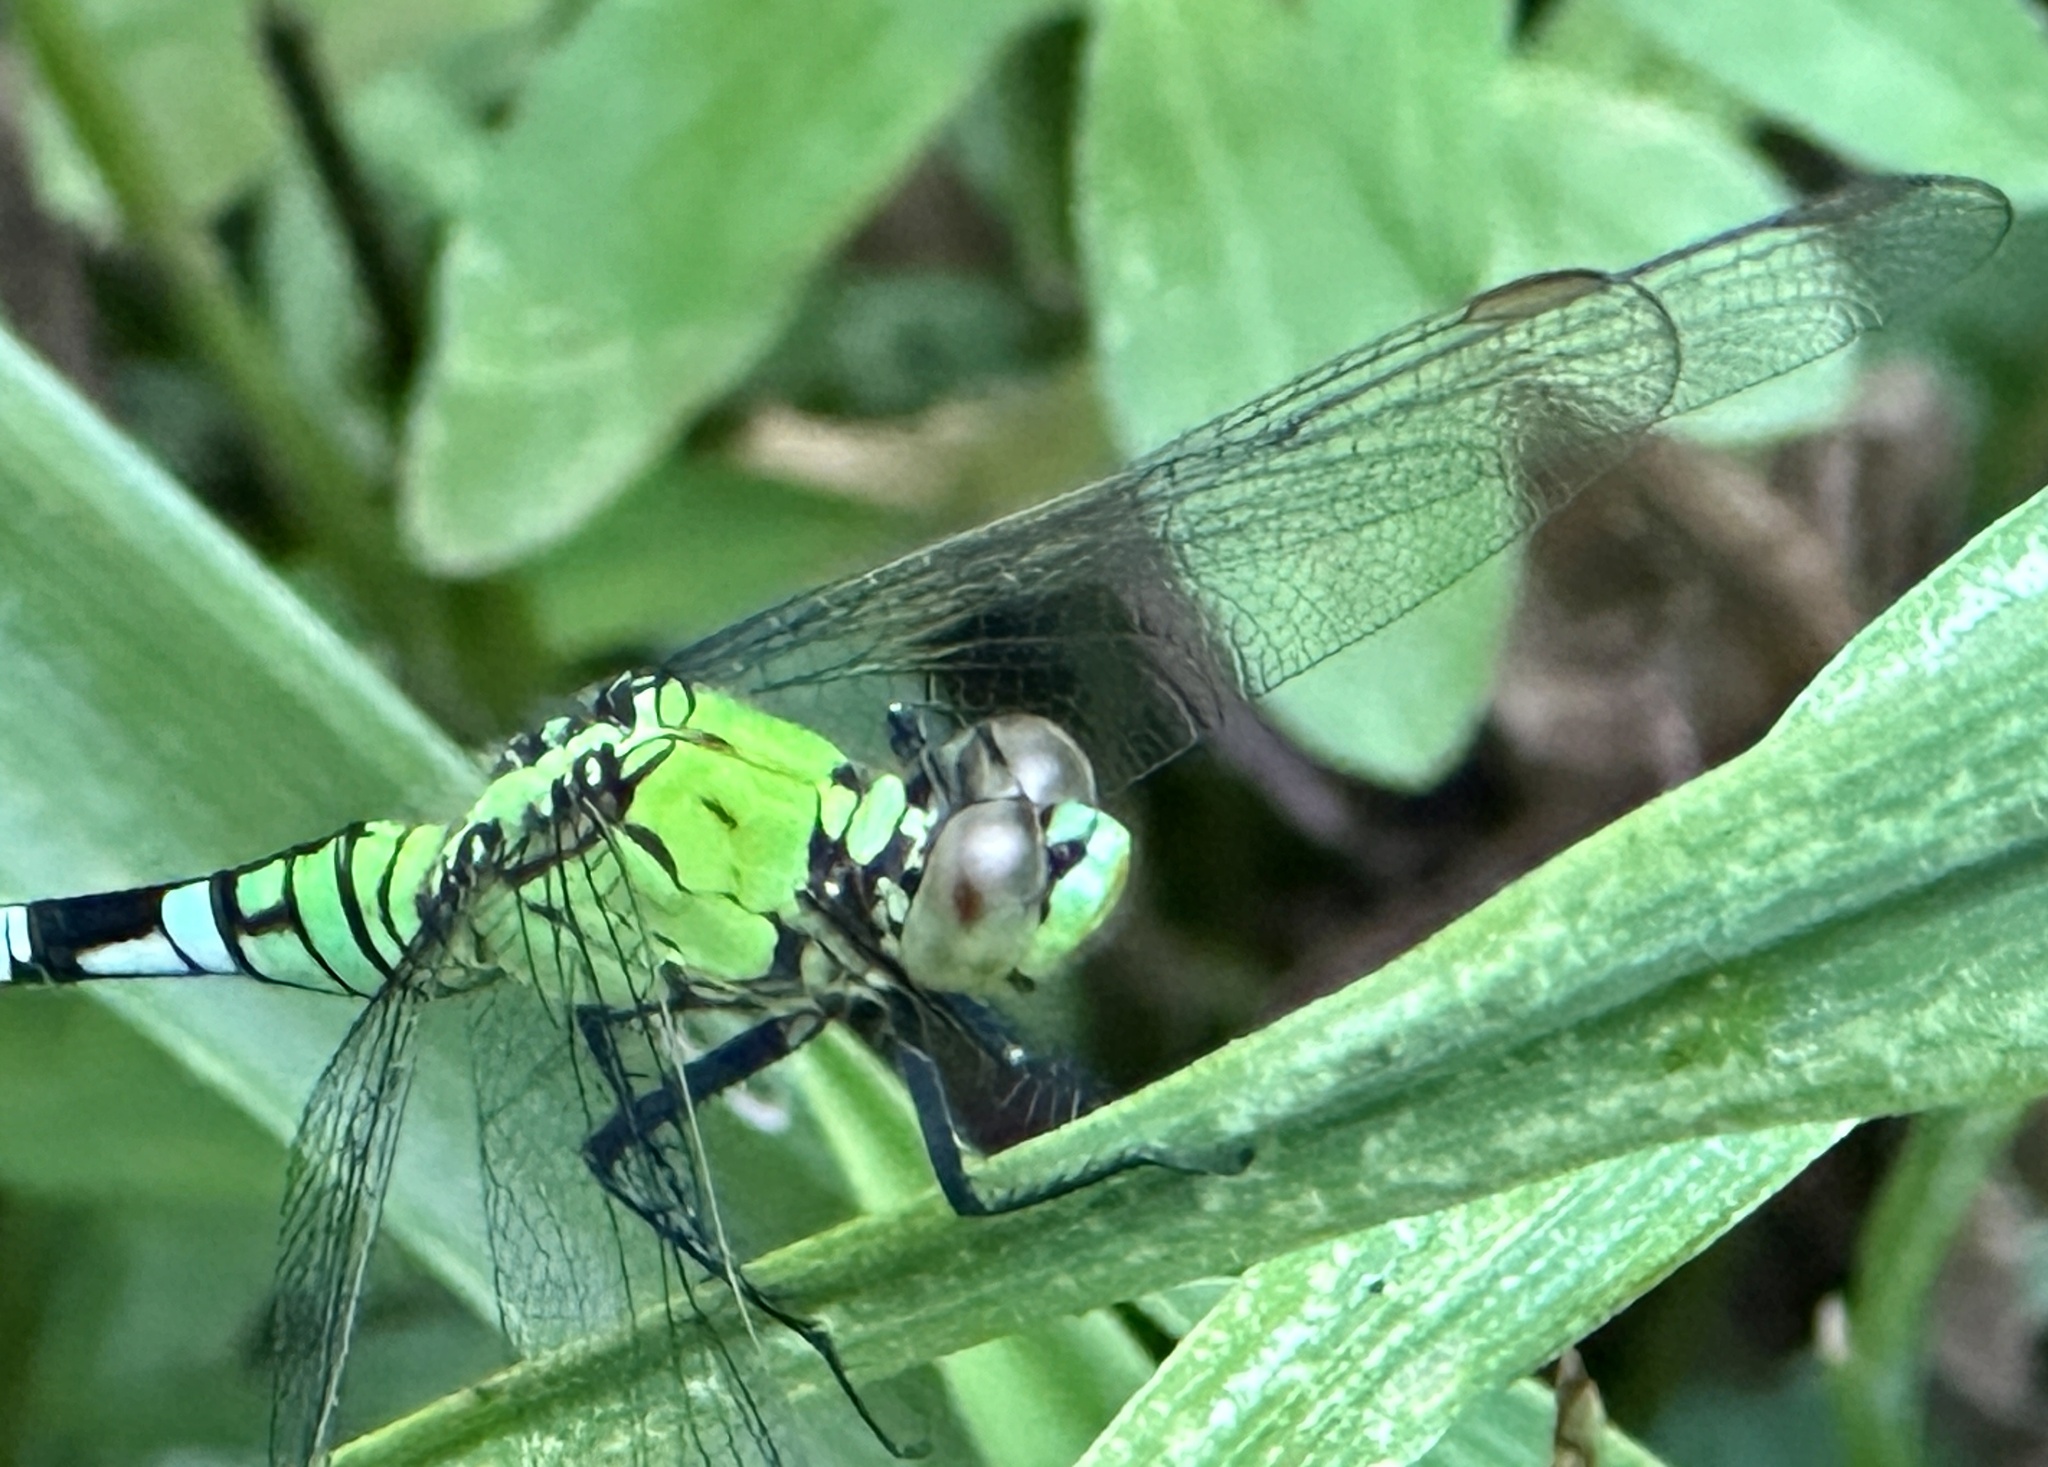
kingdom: Animalia
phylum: Arthropoda
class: Insecta
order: Odonata
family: Libellulidae
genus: Erythemis
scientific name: Erythemis simplicicollis
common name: Eastern pondhawk
